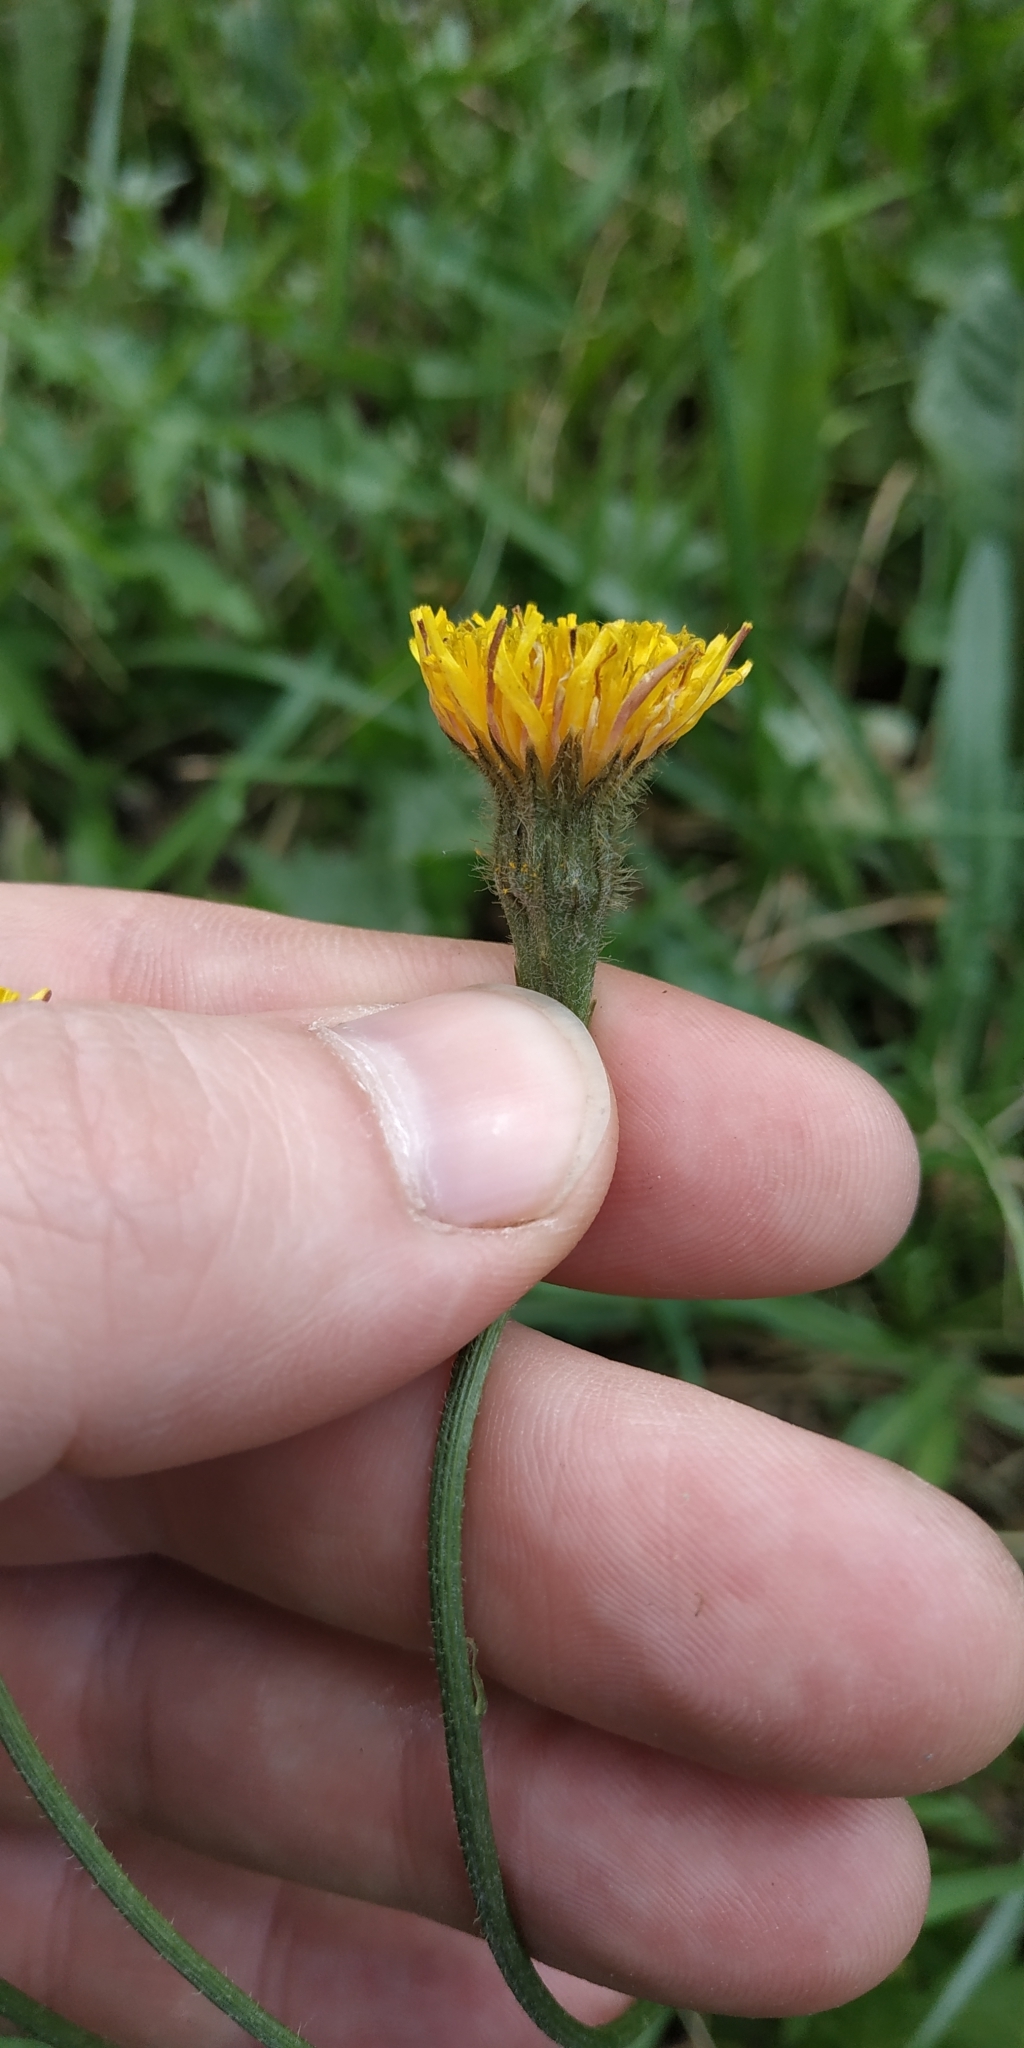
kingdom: Plantae
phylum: Tracheophyta
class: Magnoliopsida
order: Asterales
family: Asteraceae
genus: Scorzoneroides
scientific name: Scorzoneroides autumnalis
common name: Autumn hawkbit
